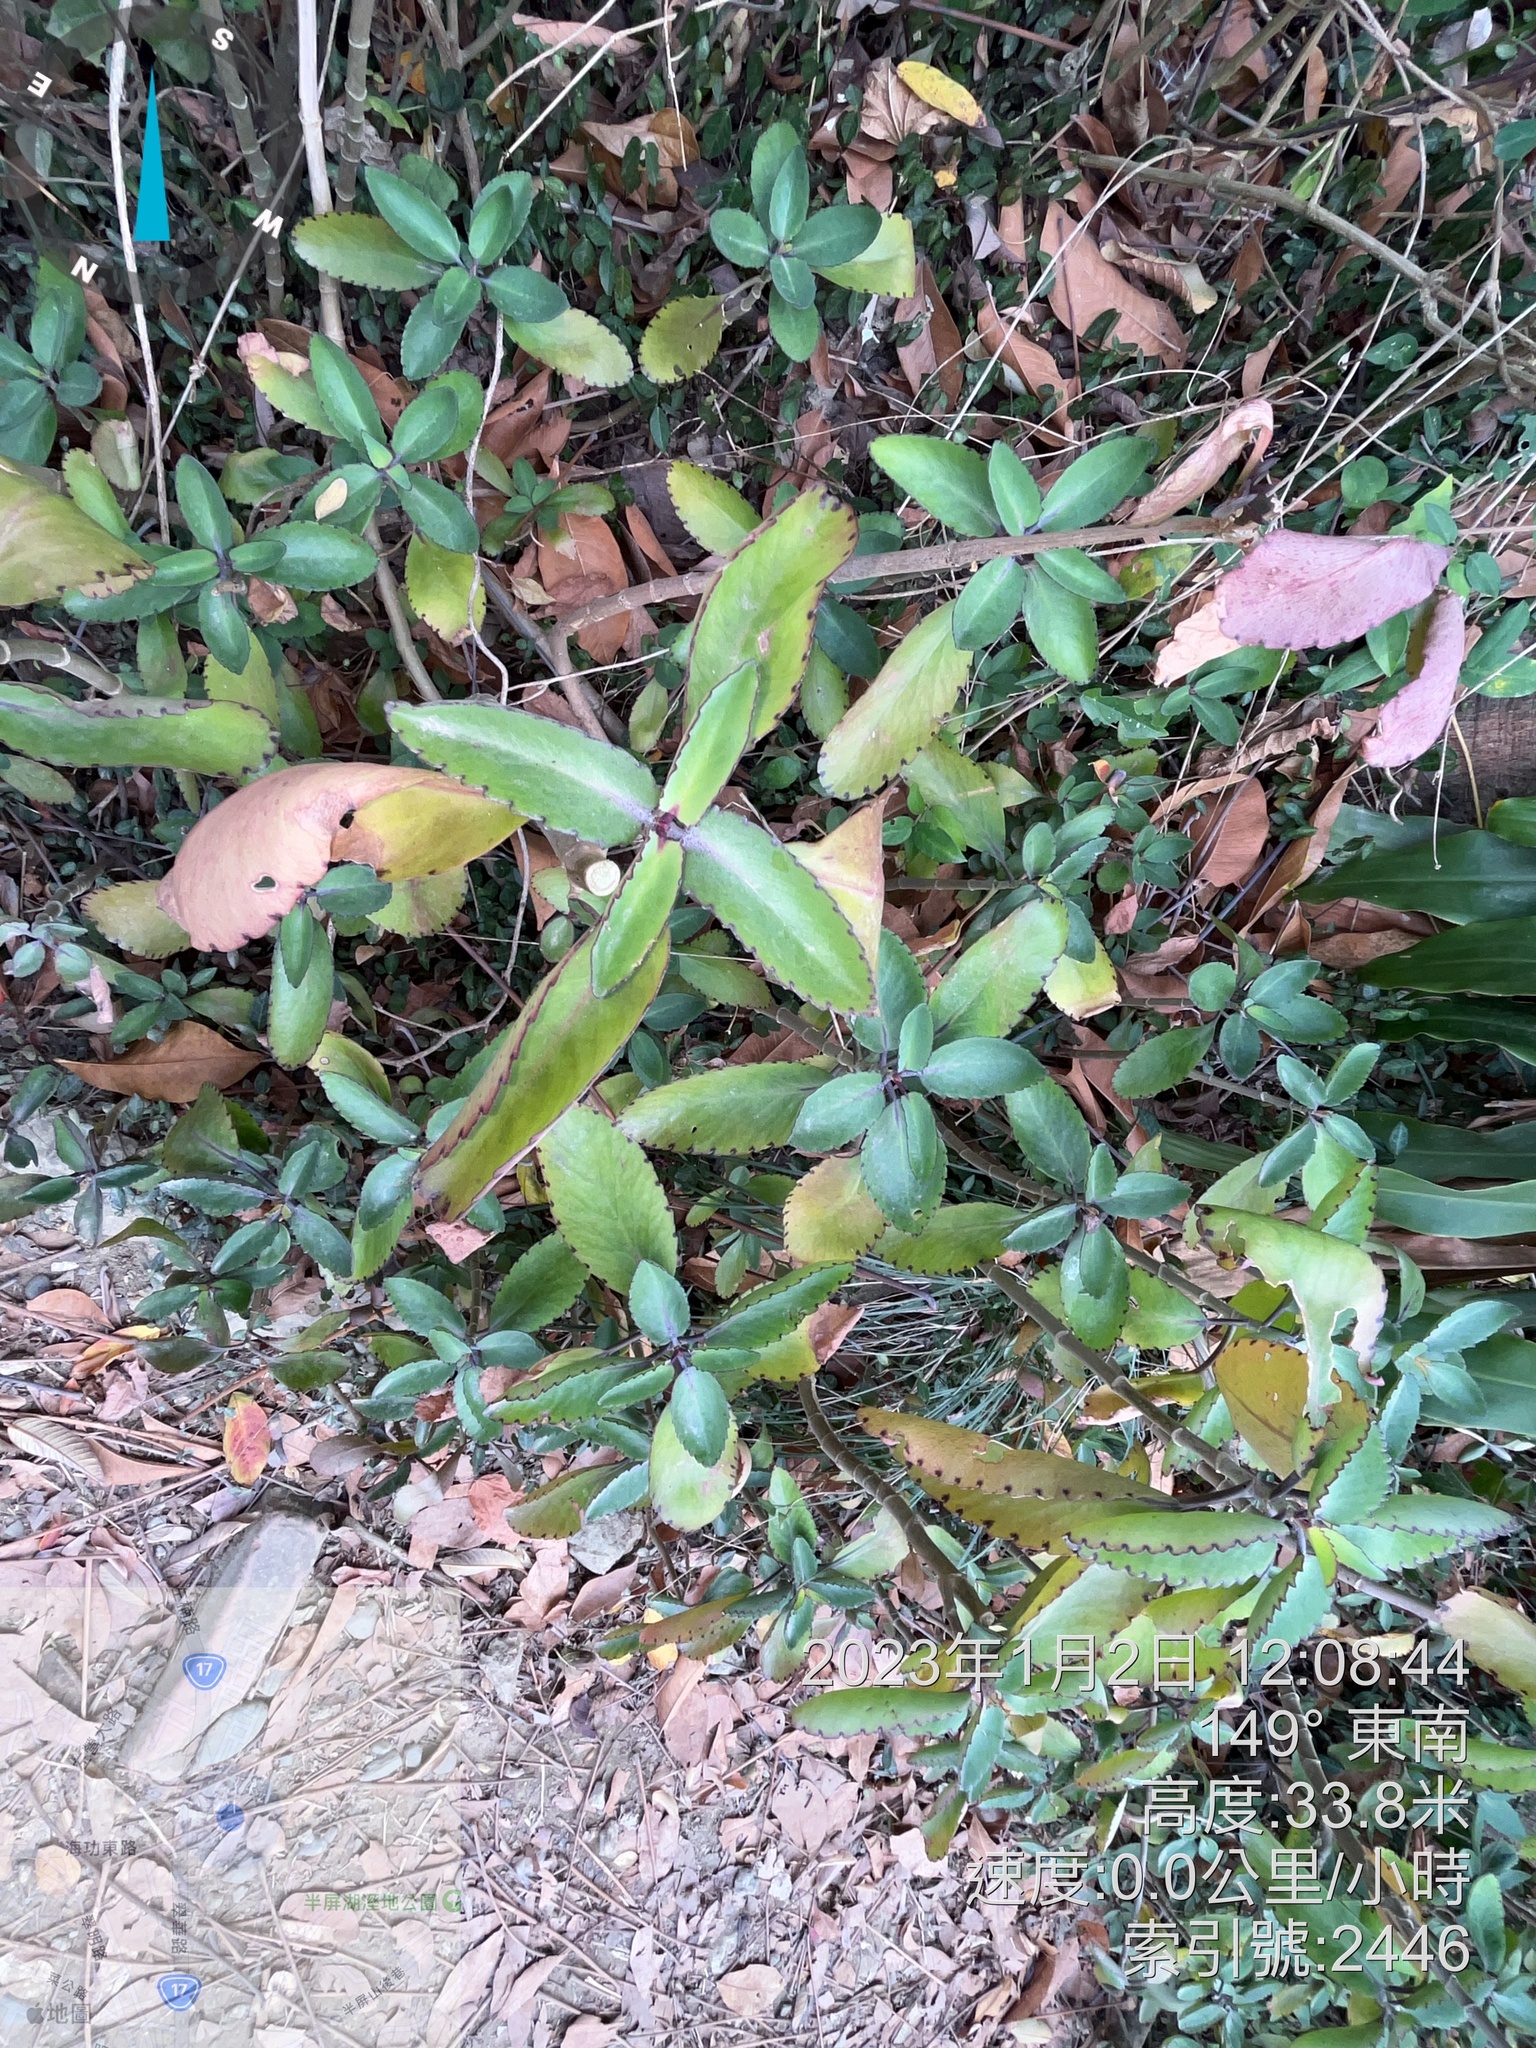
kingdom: Plantae
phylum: Tracheophyta
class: Magnoliopsida
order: Saxifragales
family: Crassulaceae
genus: Kalanchoe
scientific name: Kalanchoe pinnata
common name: Cathedral bells
